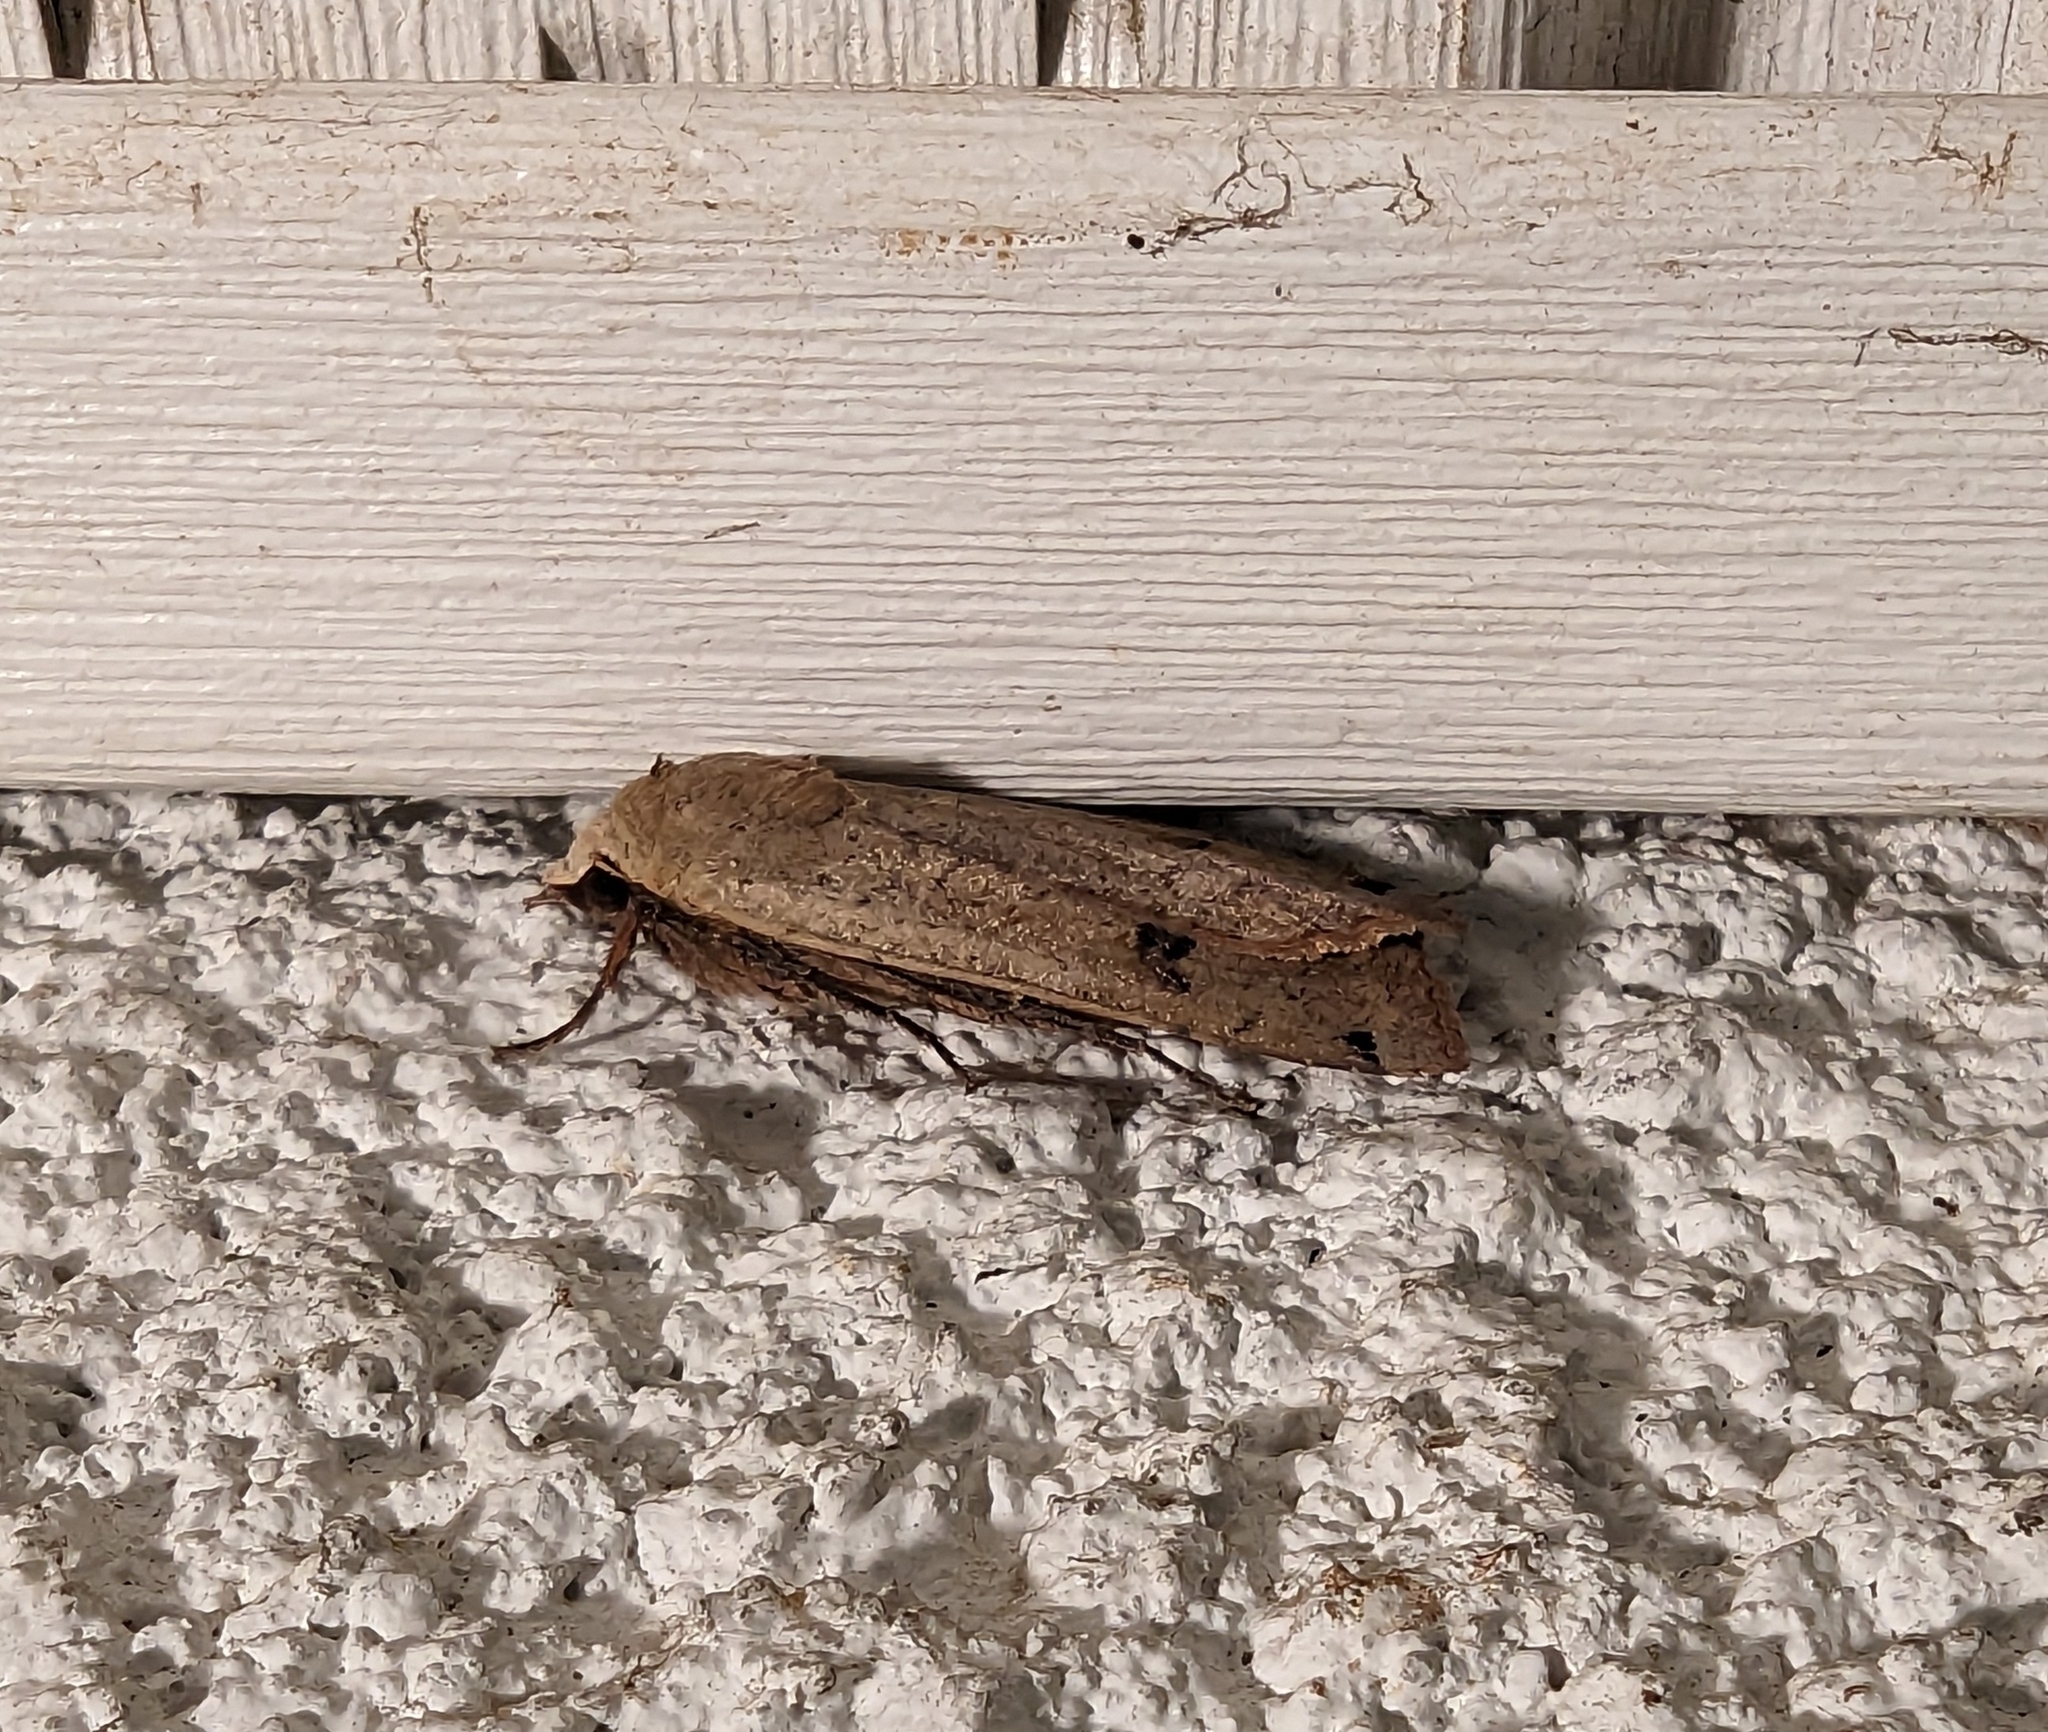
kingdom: Animalia
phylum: Arthropoda
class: Insecta
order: Lepidoptera
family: Noctuidae
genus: Noctua
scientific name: Noctua pronuba
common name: Large yellow underwing
